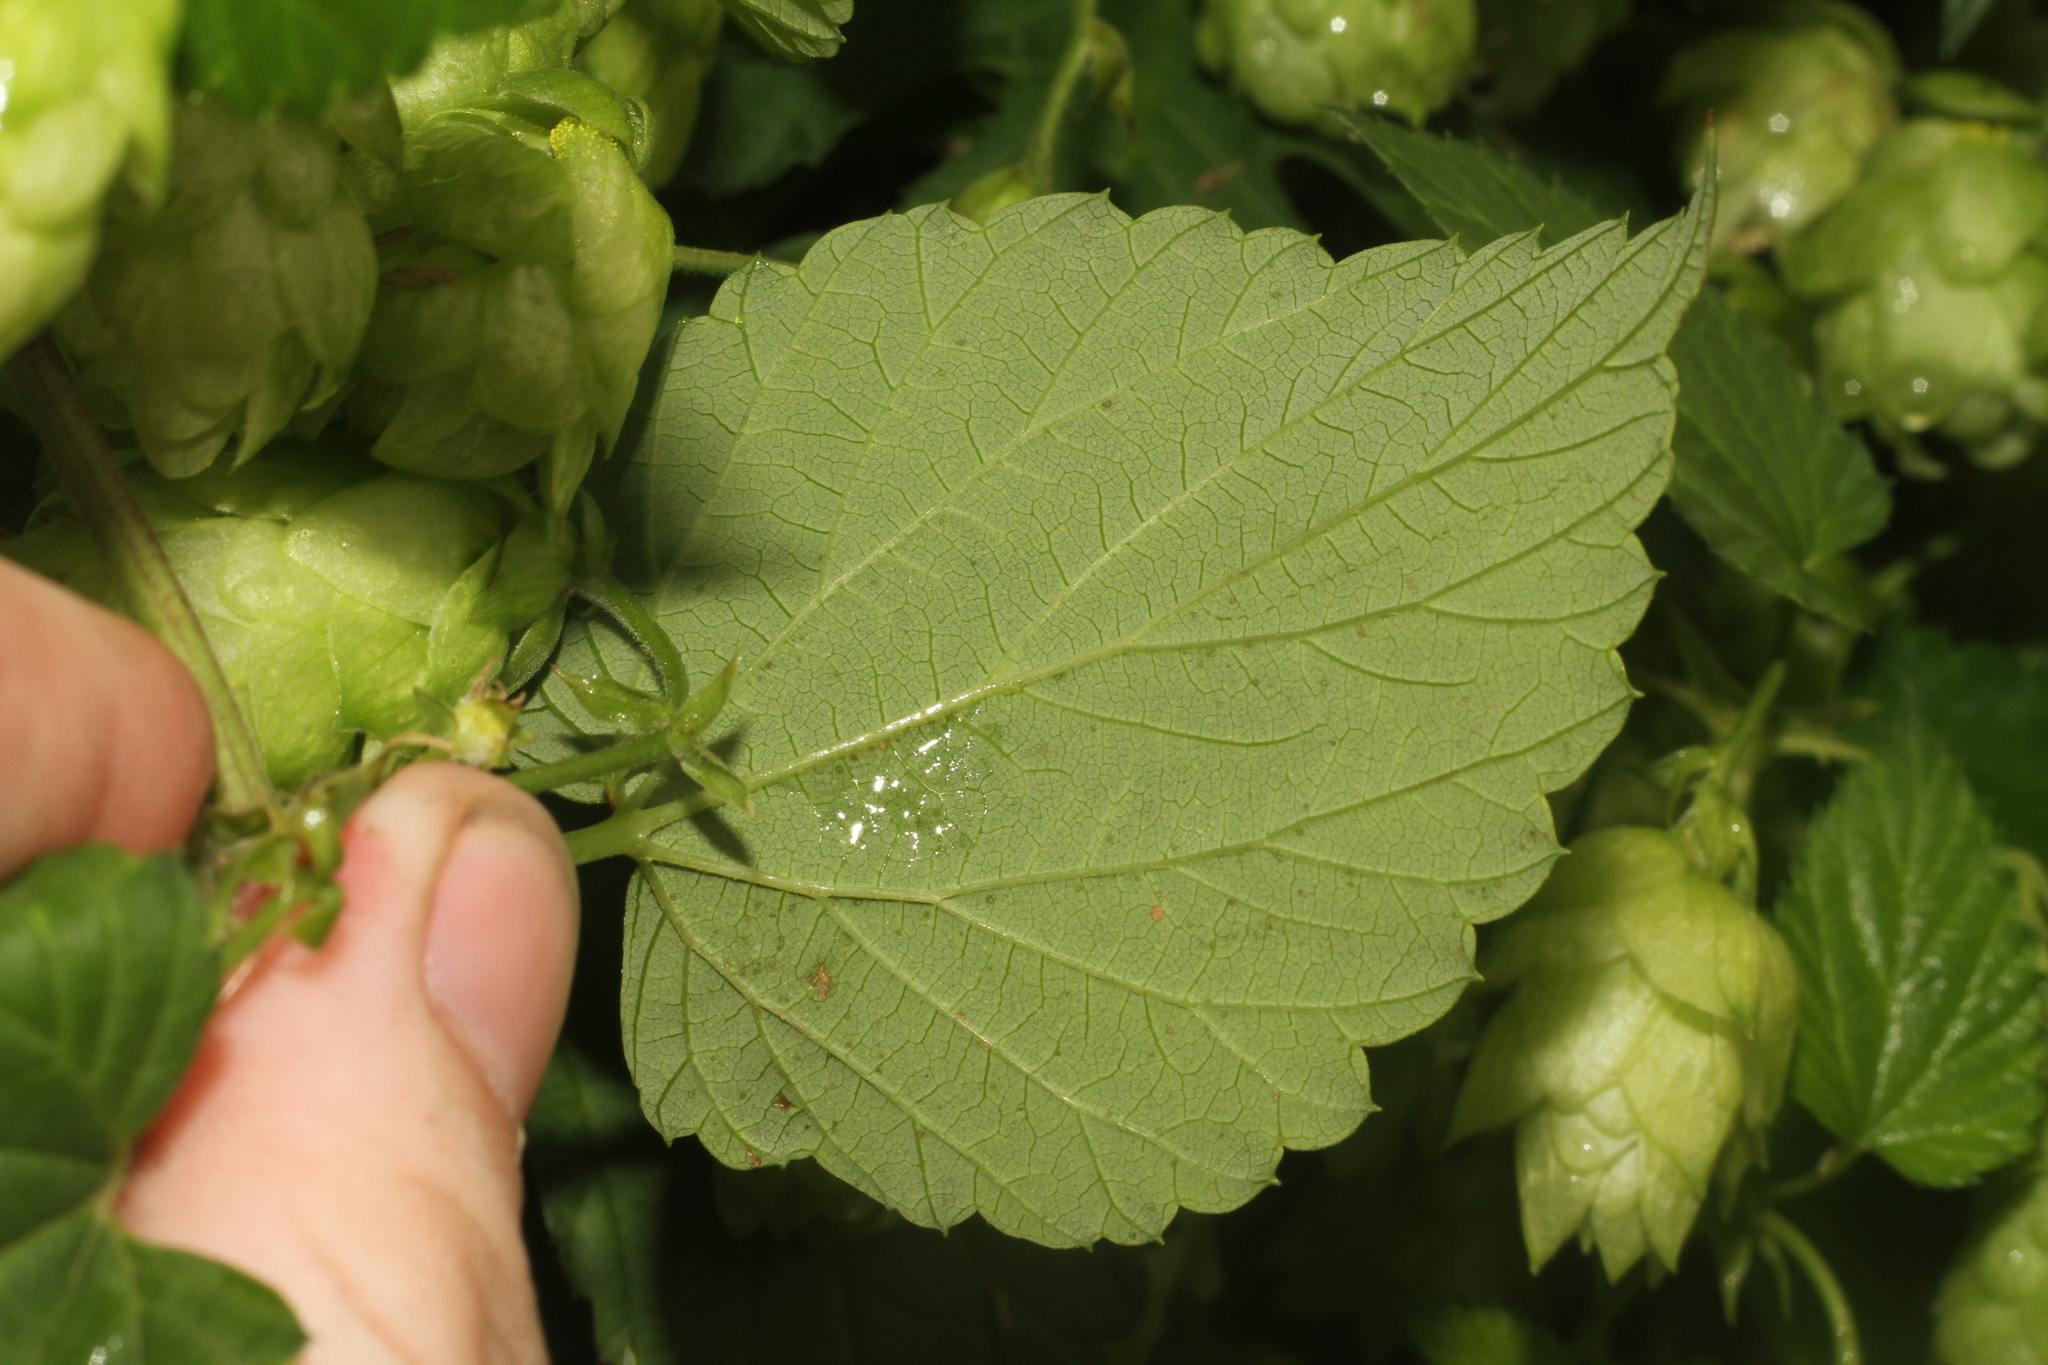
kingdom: Plantae
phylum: Tracheophyta
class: Magnoliopsida
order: Rosales
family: Cannabaceae
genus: Humulus
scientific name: Humulus lupulus
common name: Hop
